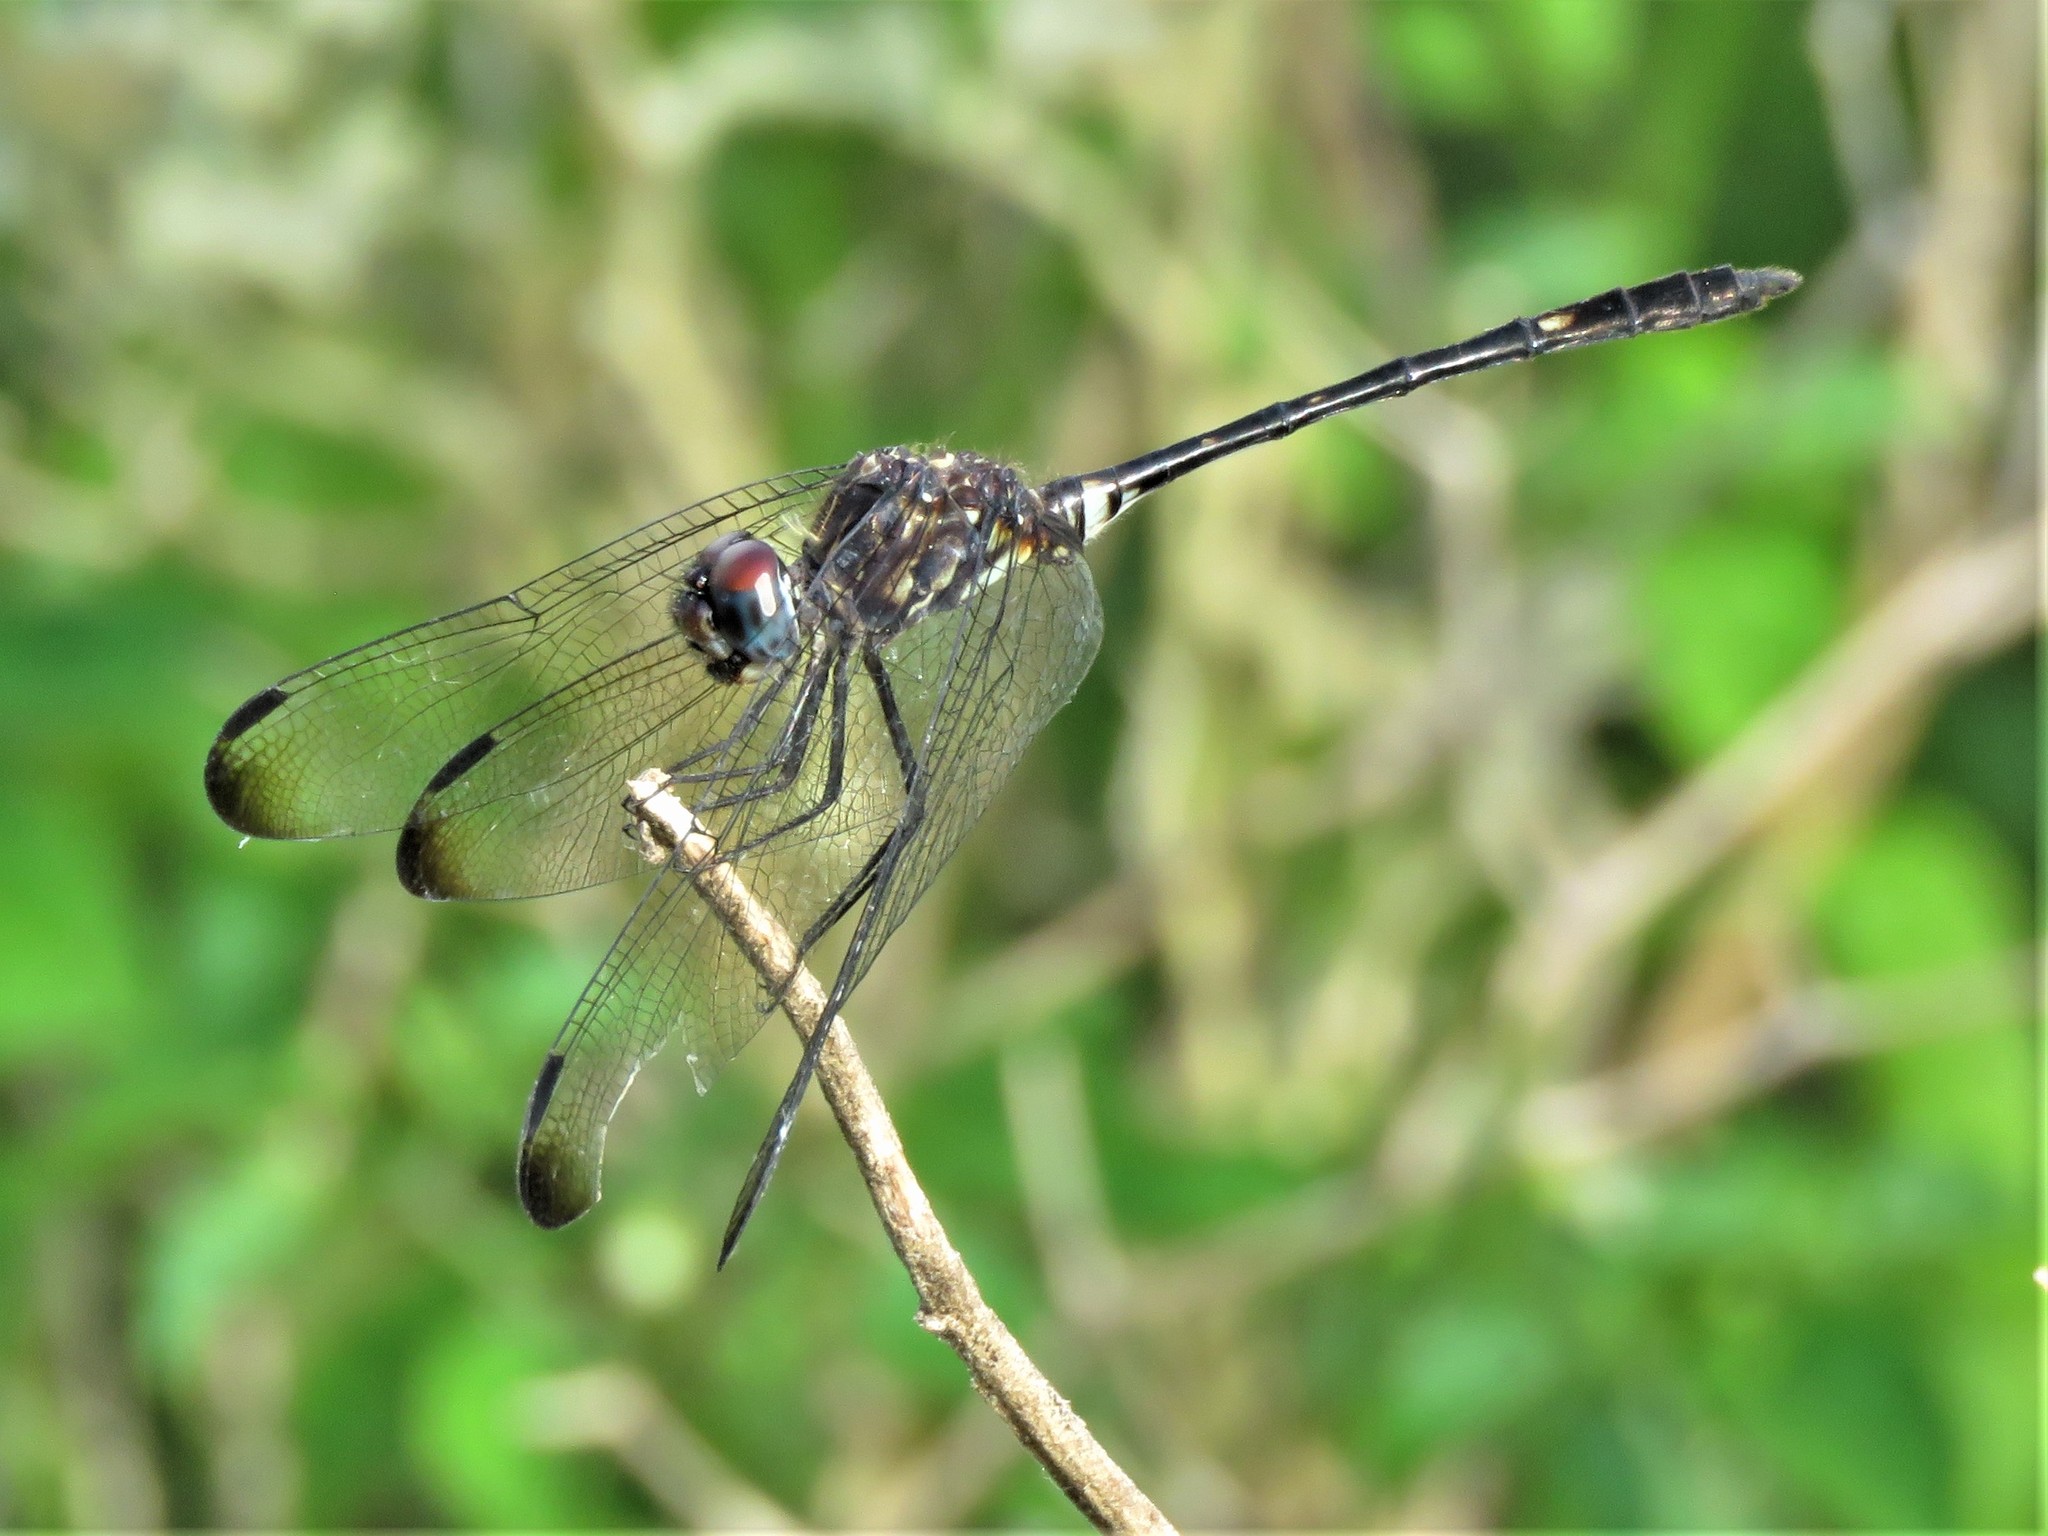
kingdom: Animalia
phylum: Arthropoda
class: Insecta
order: Odonata
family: Libellulidae
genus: Dythemis
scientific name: Dythemis velox
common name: Swift setwing
